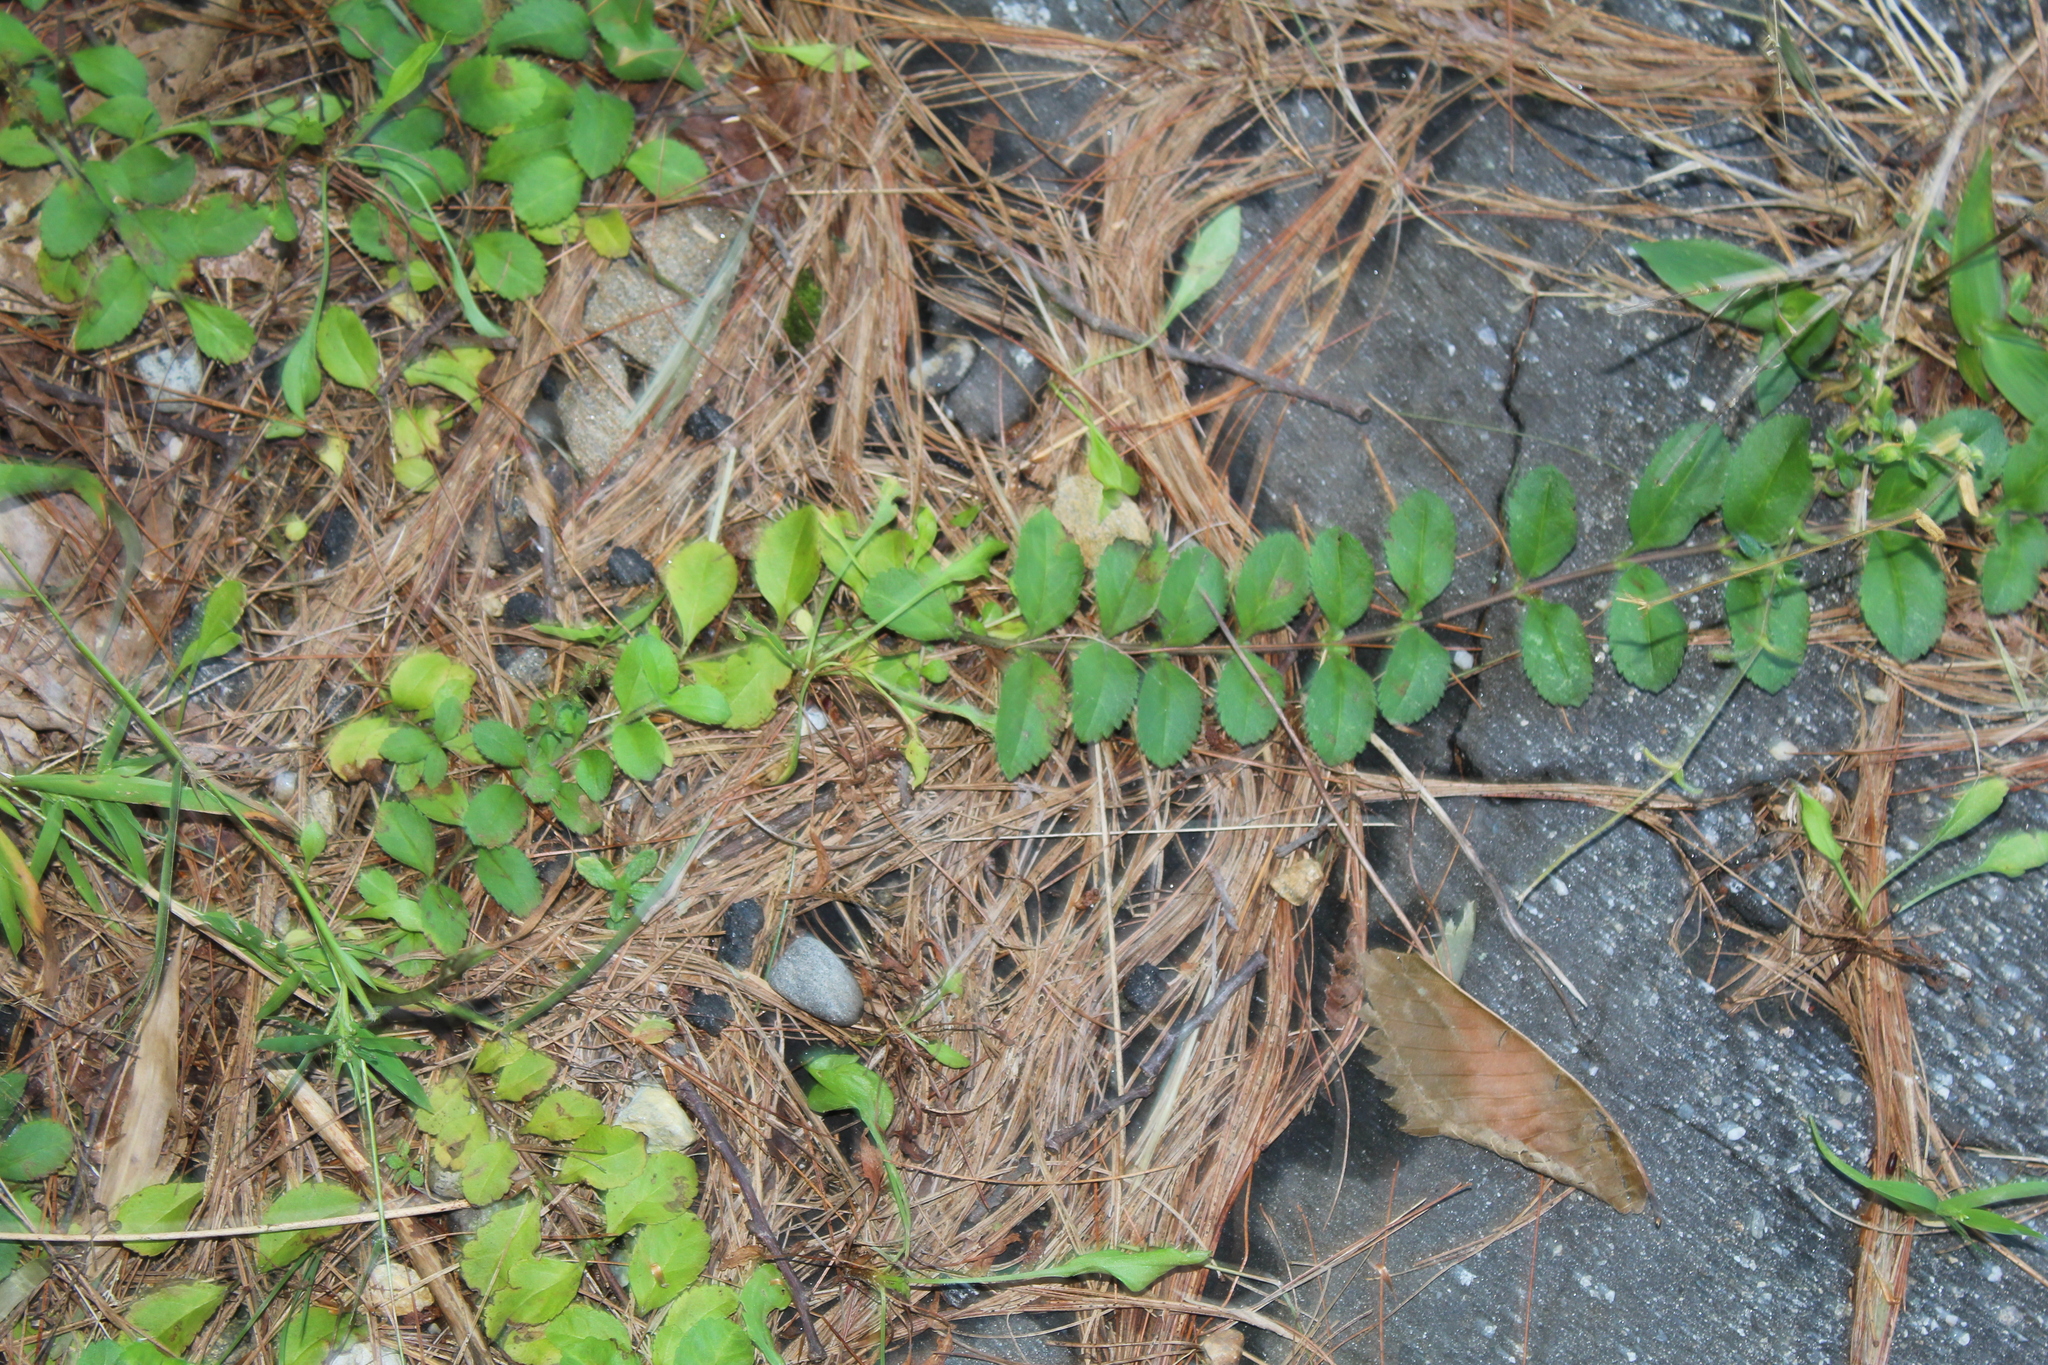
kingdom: Plantae
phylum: Tracheophyta
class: Magnoliopsida
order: Lamiales
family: Plantaginaceae
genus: Veronica
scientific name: Veronica officinalis
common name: Common speedwell
